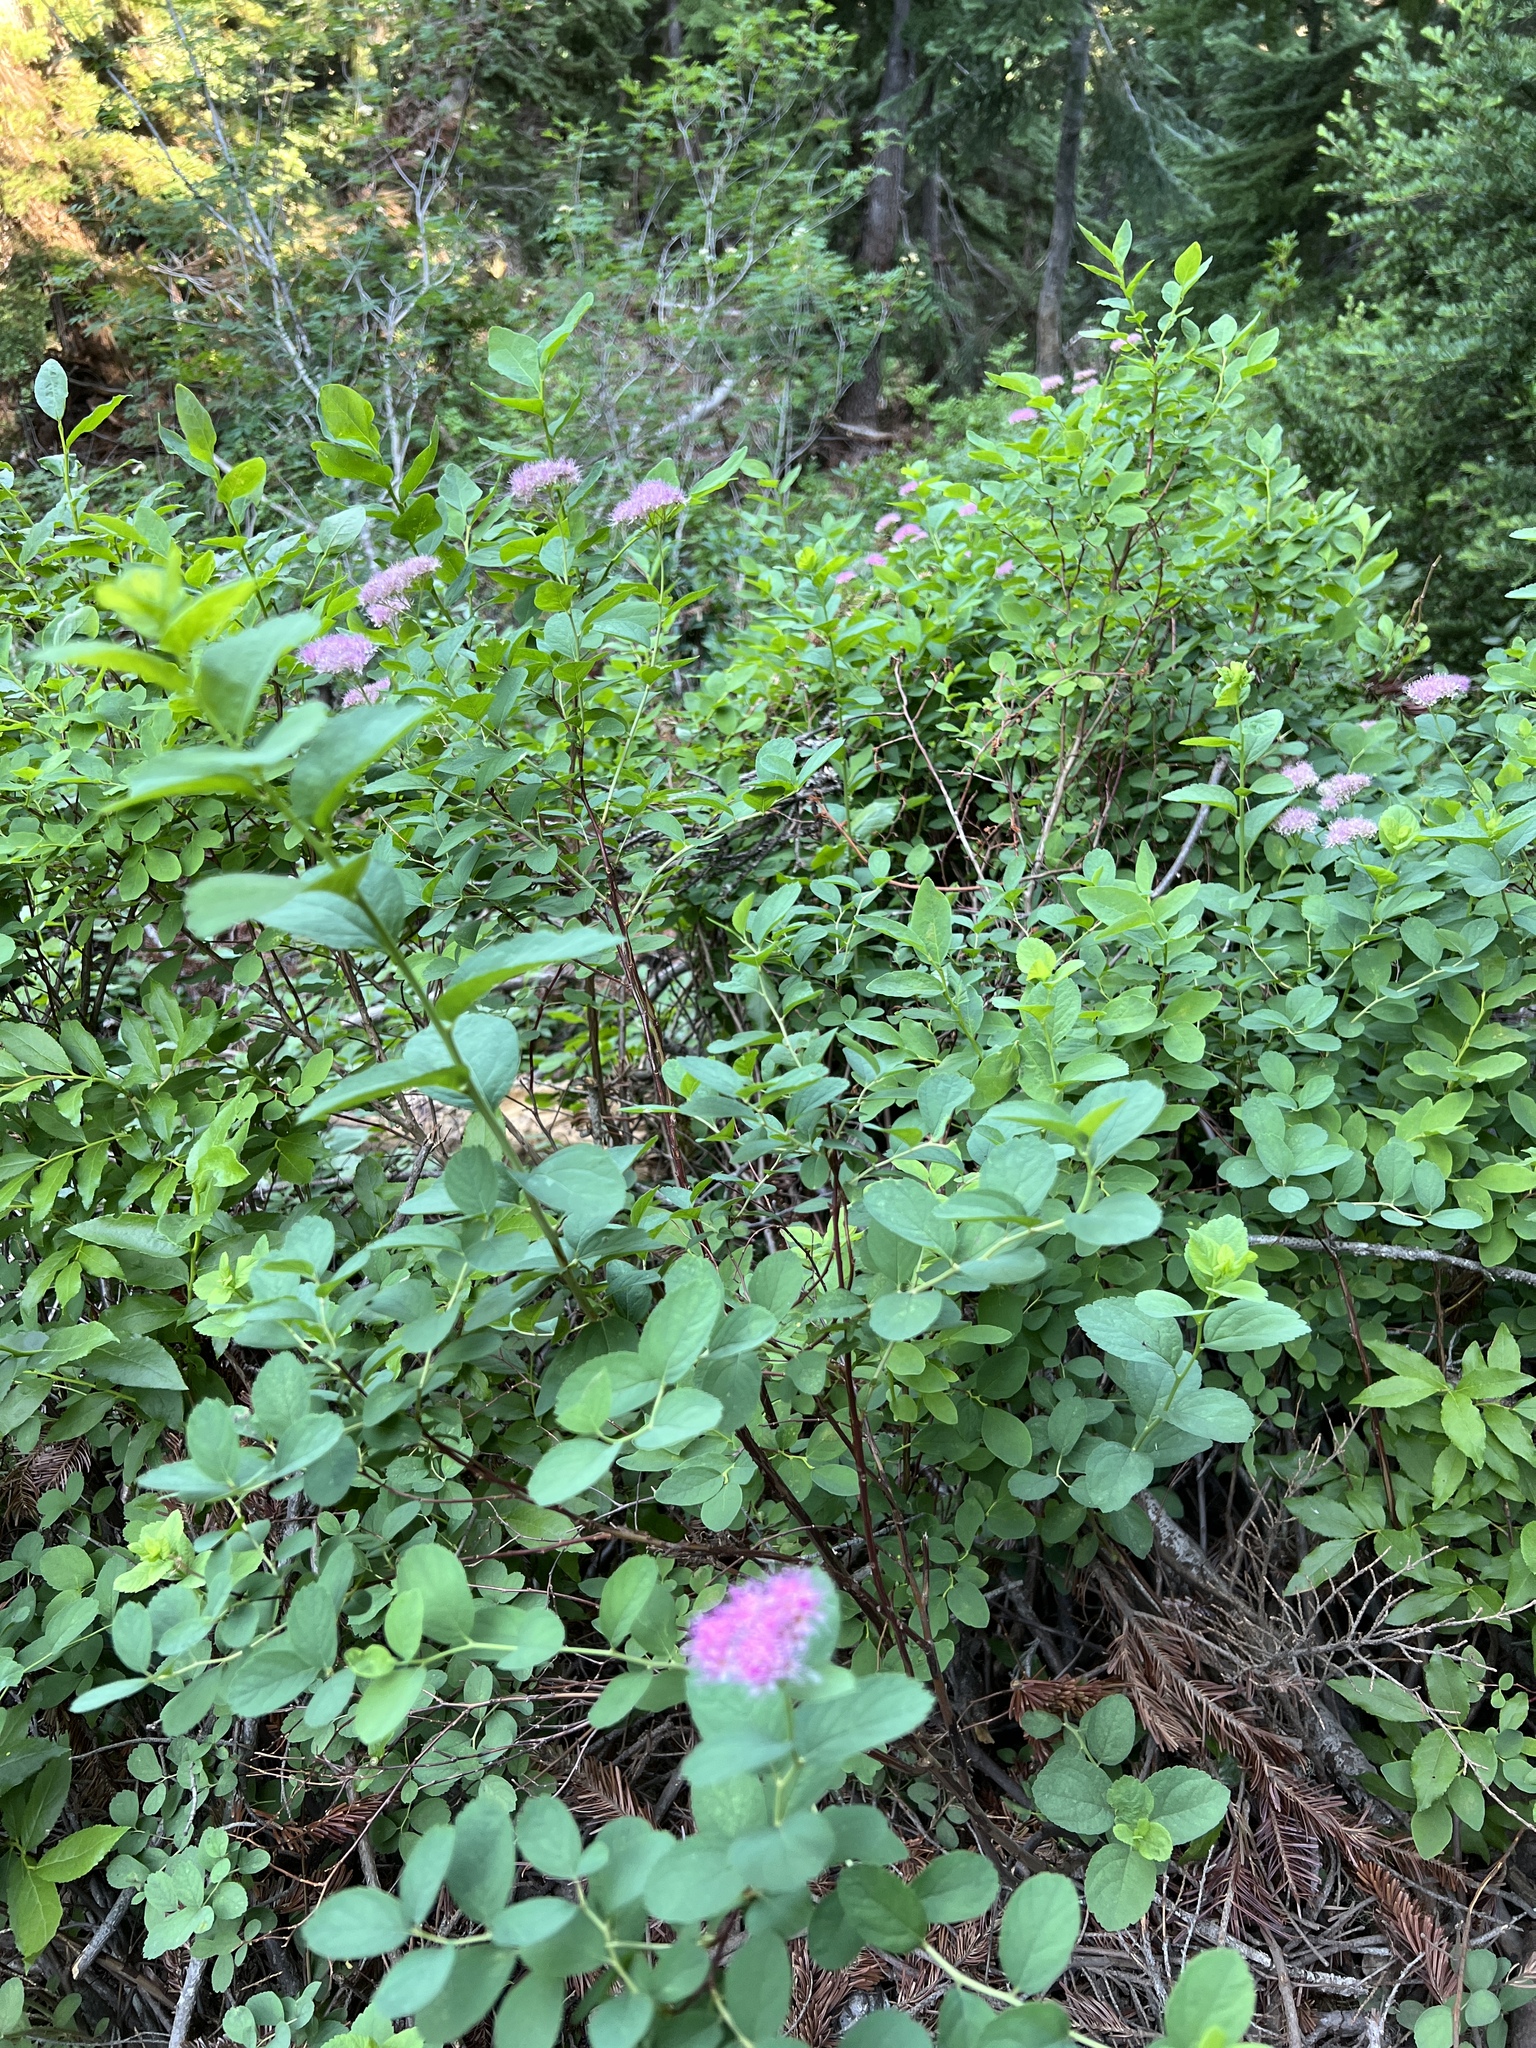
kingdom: Plantae
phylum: Tracheophyta
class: Magnoliopsida
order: Rosales
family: Rosaceae
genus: Spiraea
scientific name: Spiraea splendens
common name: Subalpine meadowsweet
